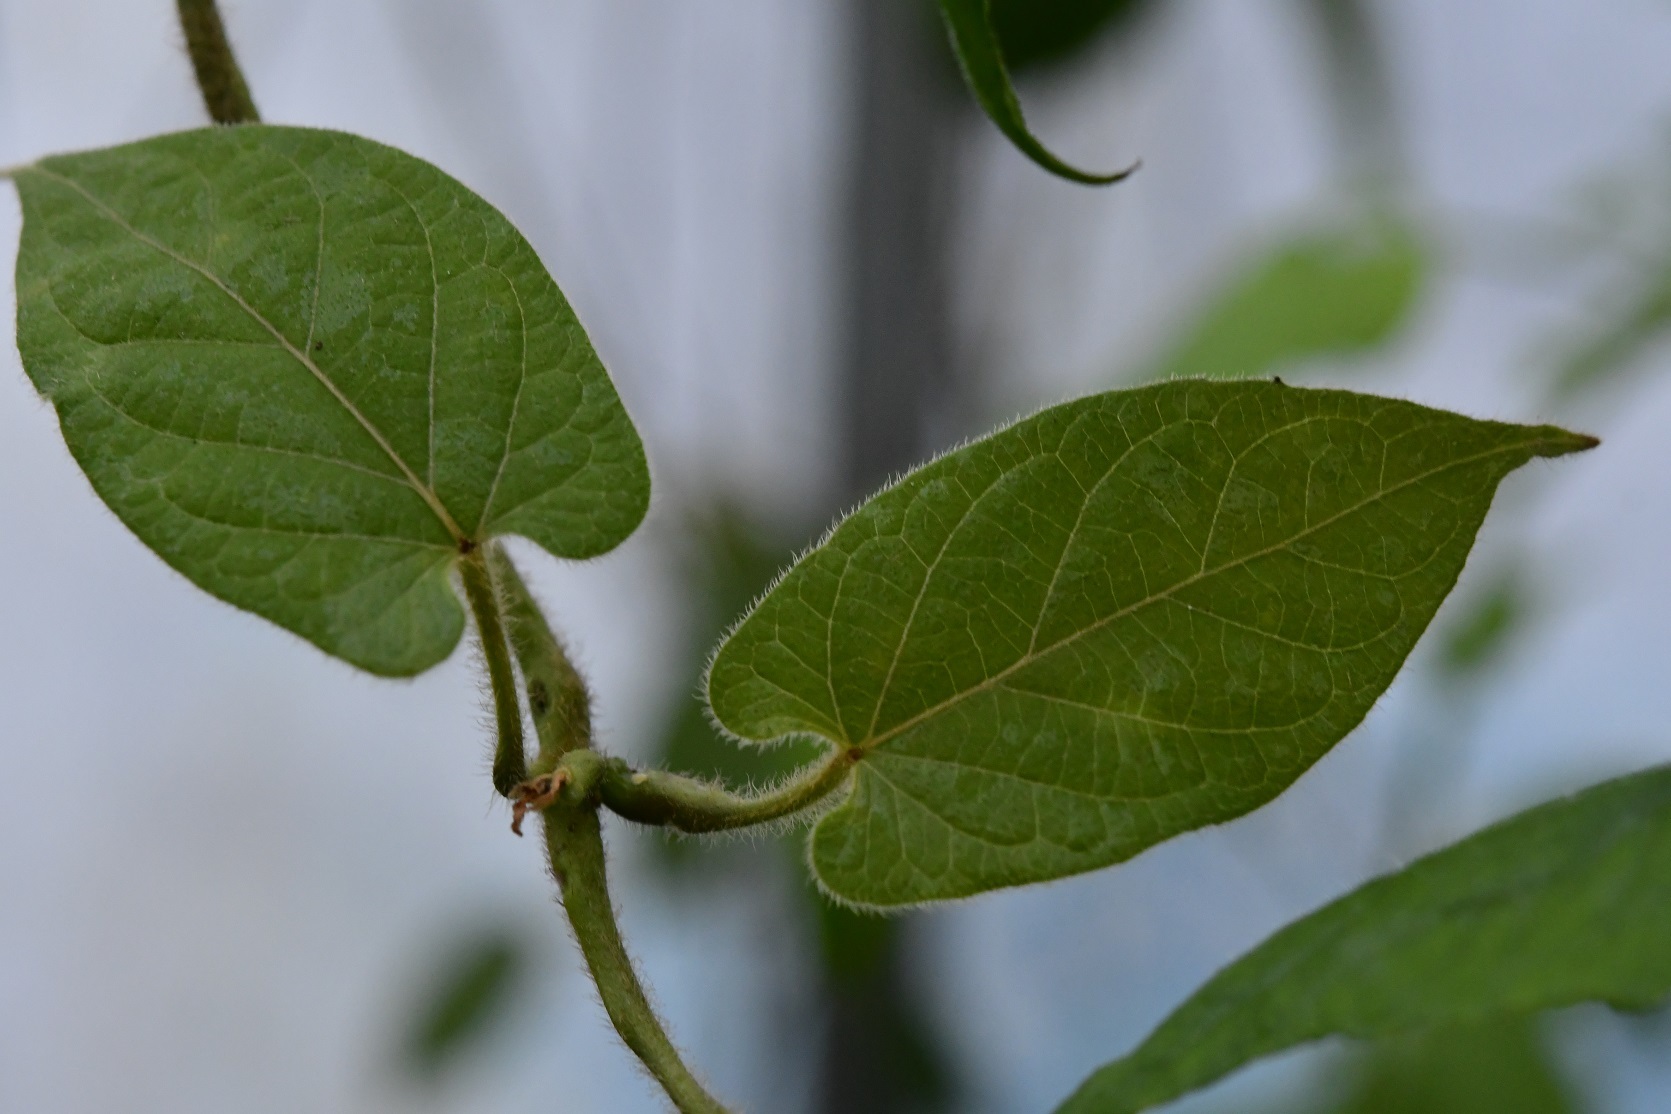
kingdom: Plantae
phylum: Tracheophyta
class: Magnoliopsida
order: Gentianales
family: Apocynaceae
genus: Gonolobus
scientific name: Gonolobus stenosepalus
